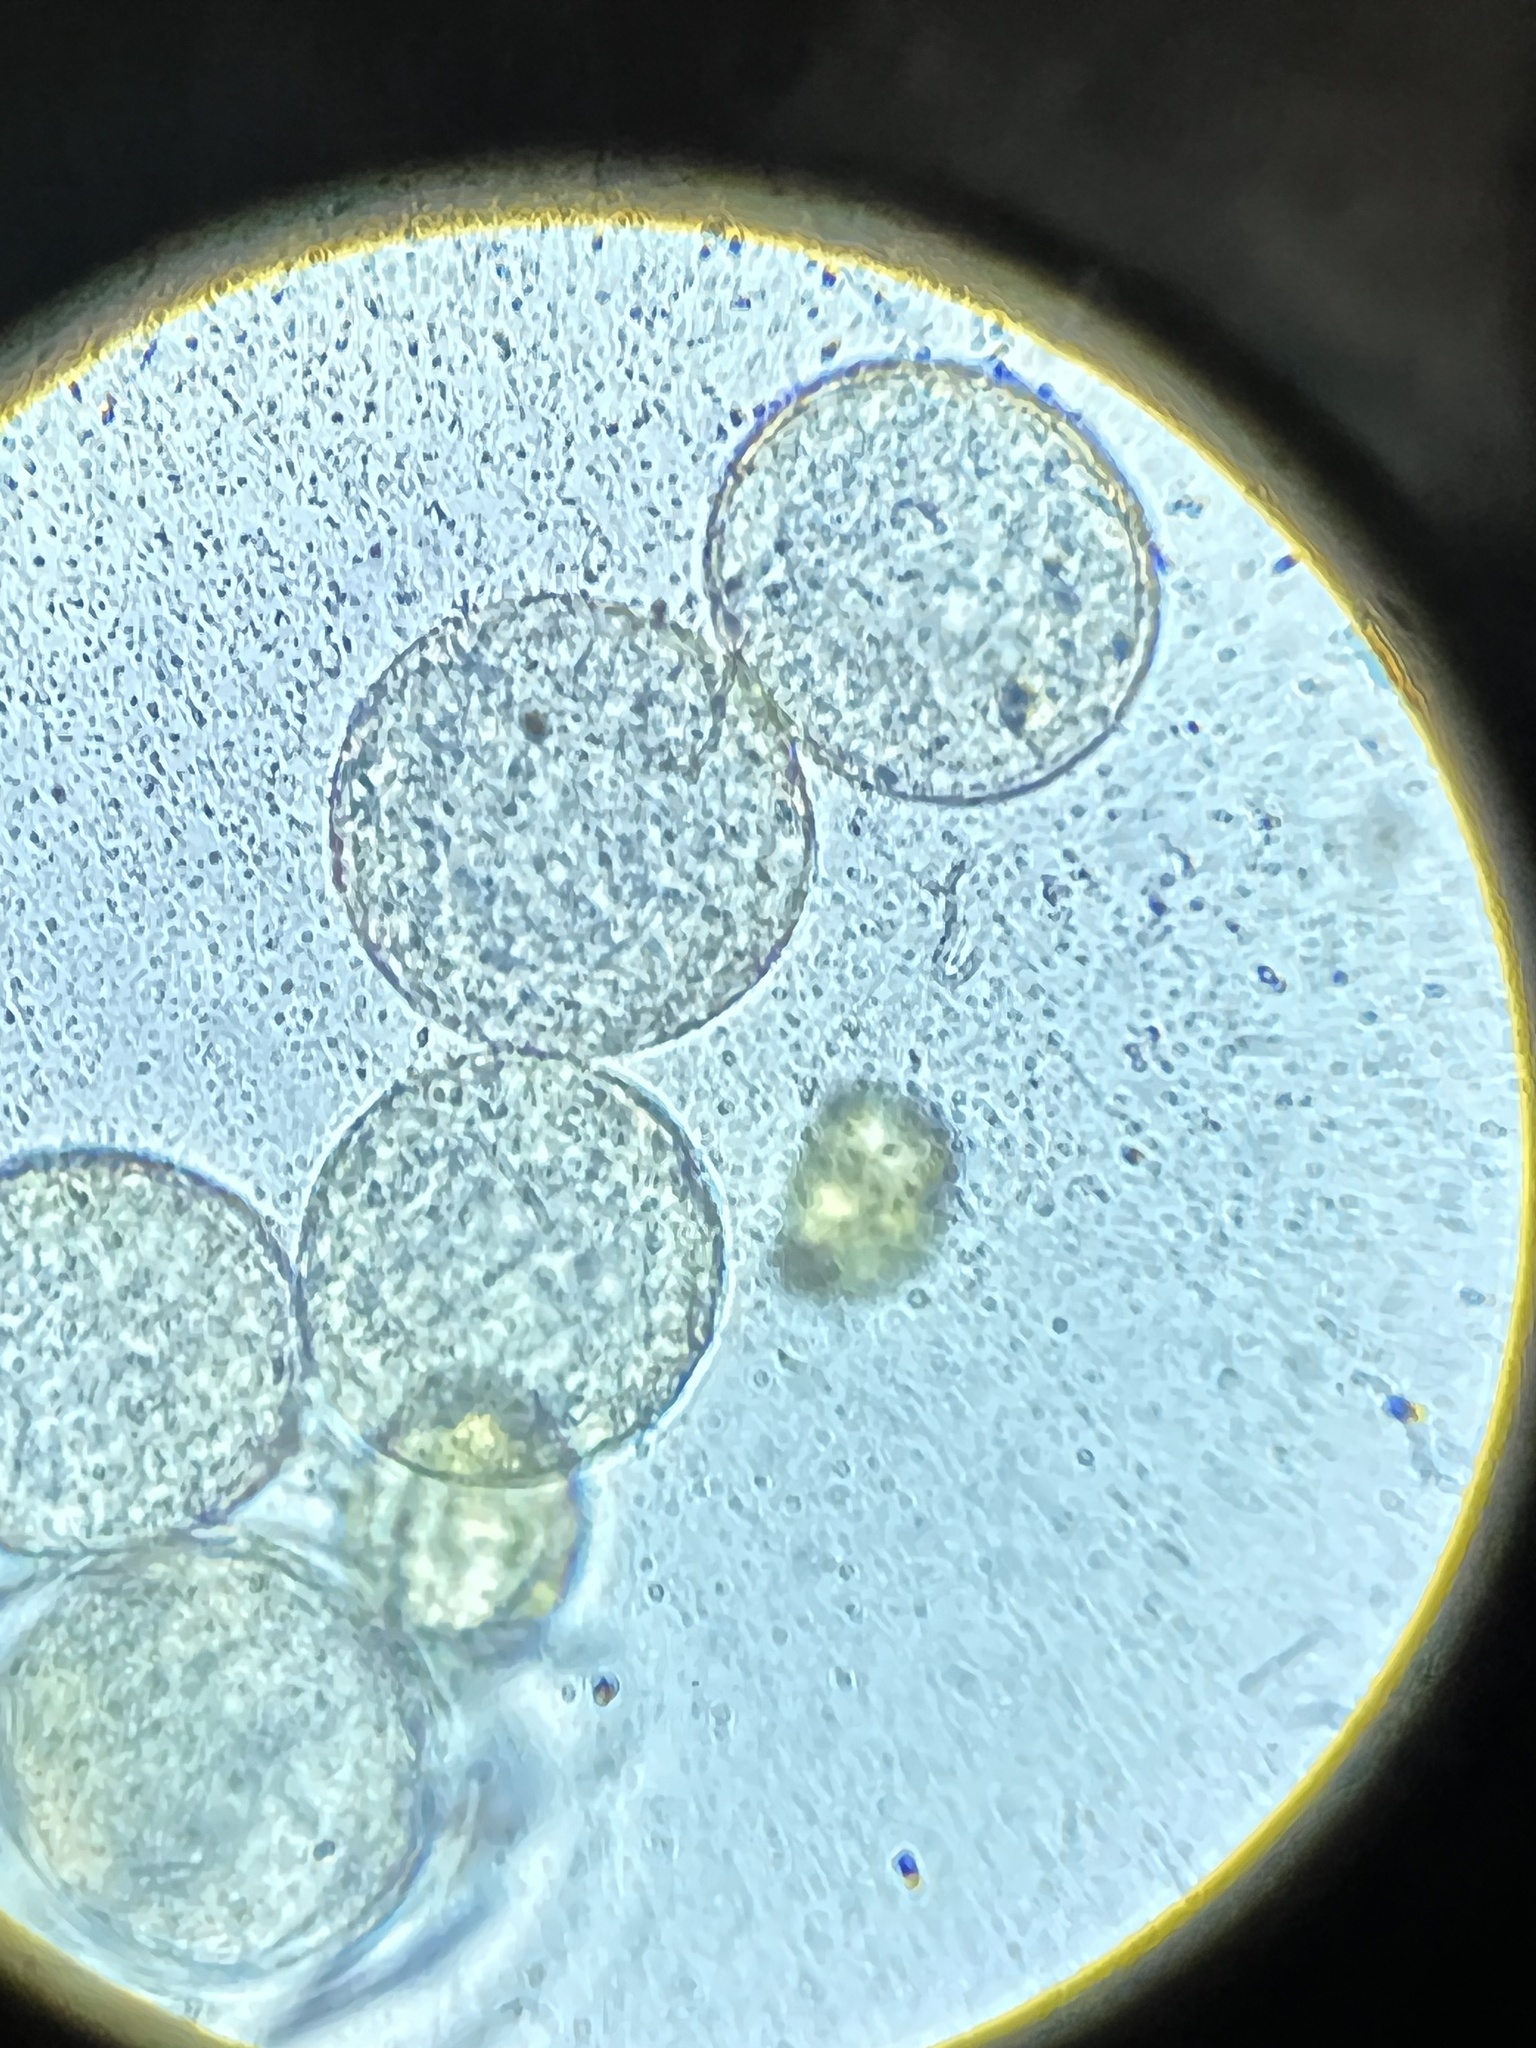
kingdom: Fungi
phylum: Basidiomycota
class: Pucciniomycetes
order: Pucciniales
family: Pucciniaceae
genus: Puccinia
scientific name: Puccinia podophylli
